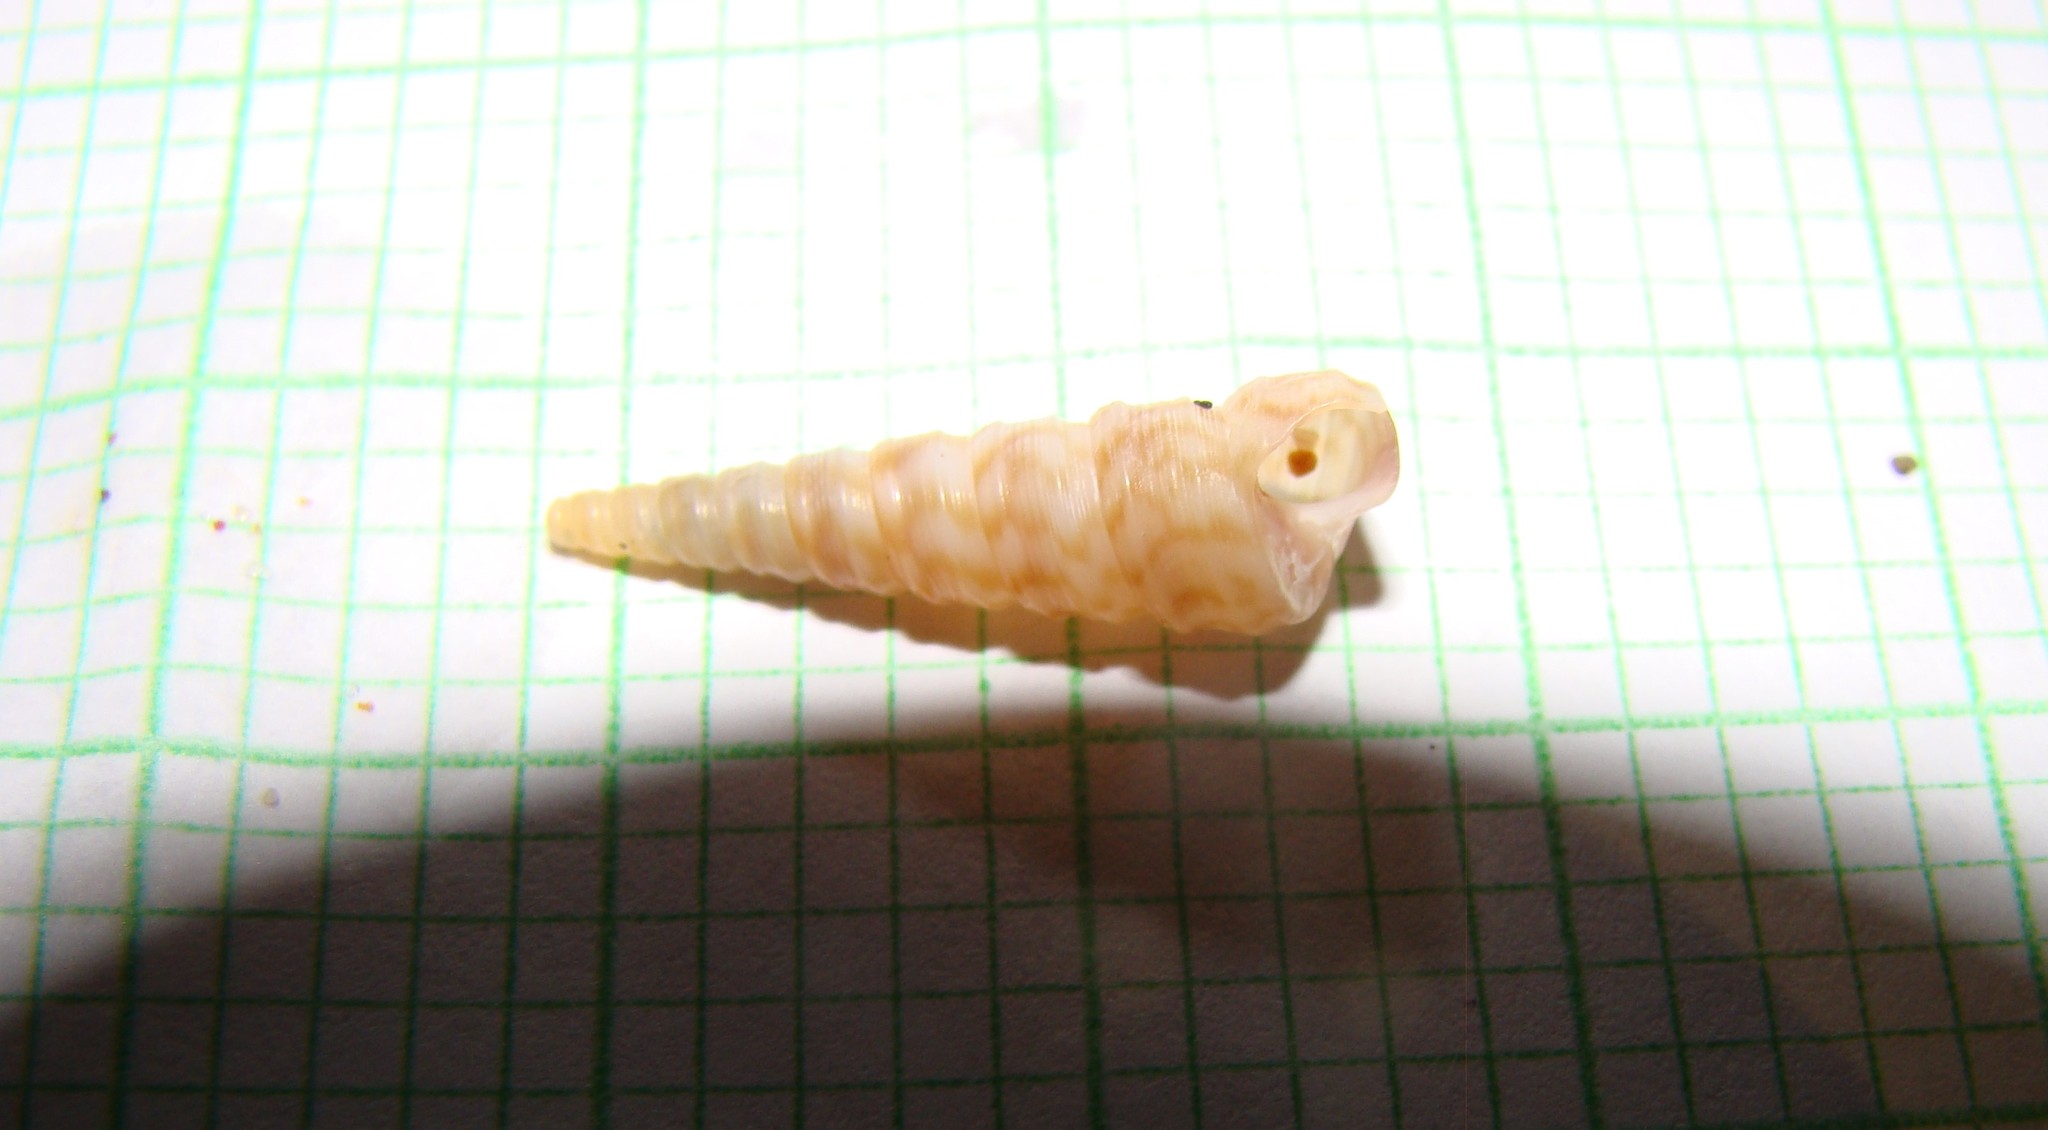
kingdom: Animalia
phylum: Mollusca
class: Gastropoda
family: Turritellidae
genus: Stiracolpus
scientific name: Stiracolpus pagoda
